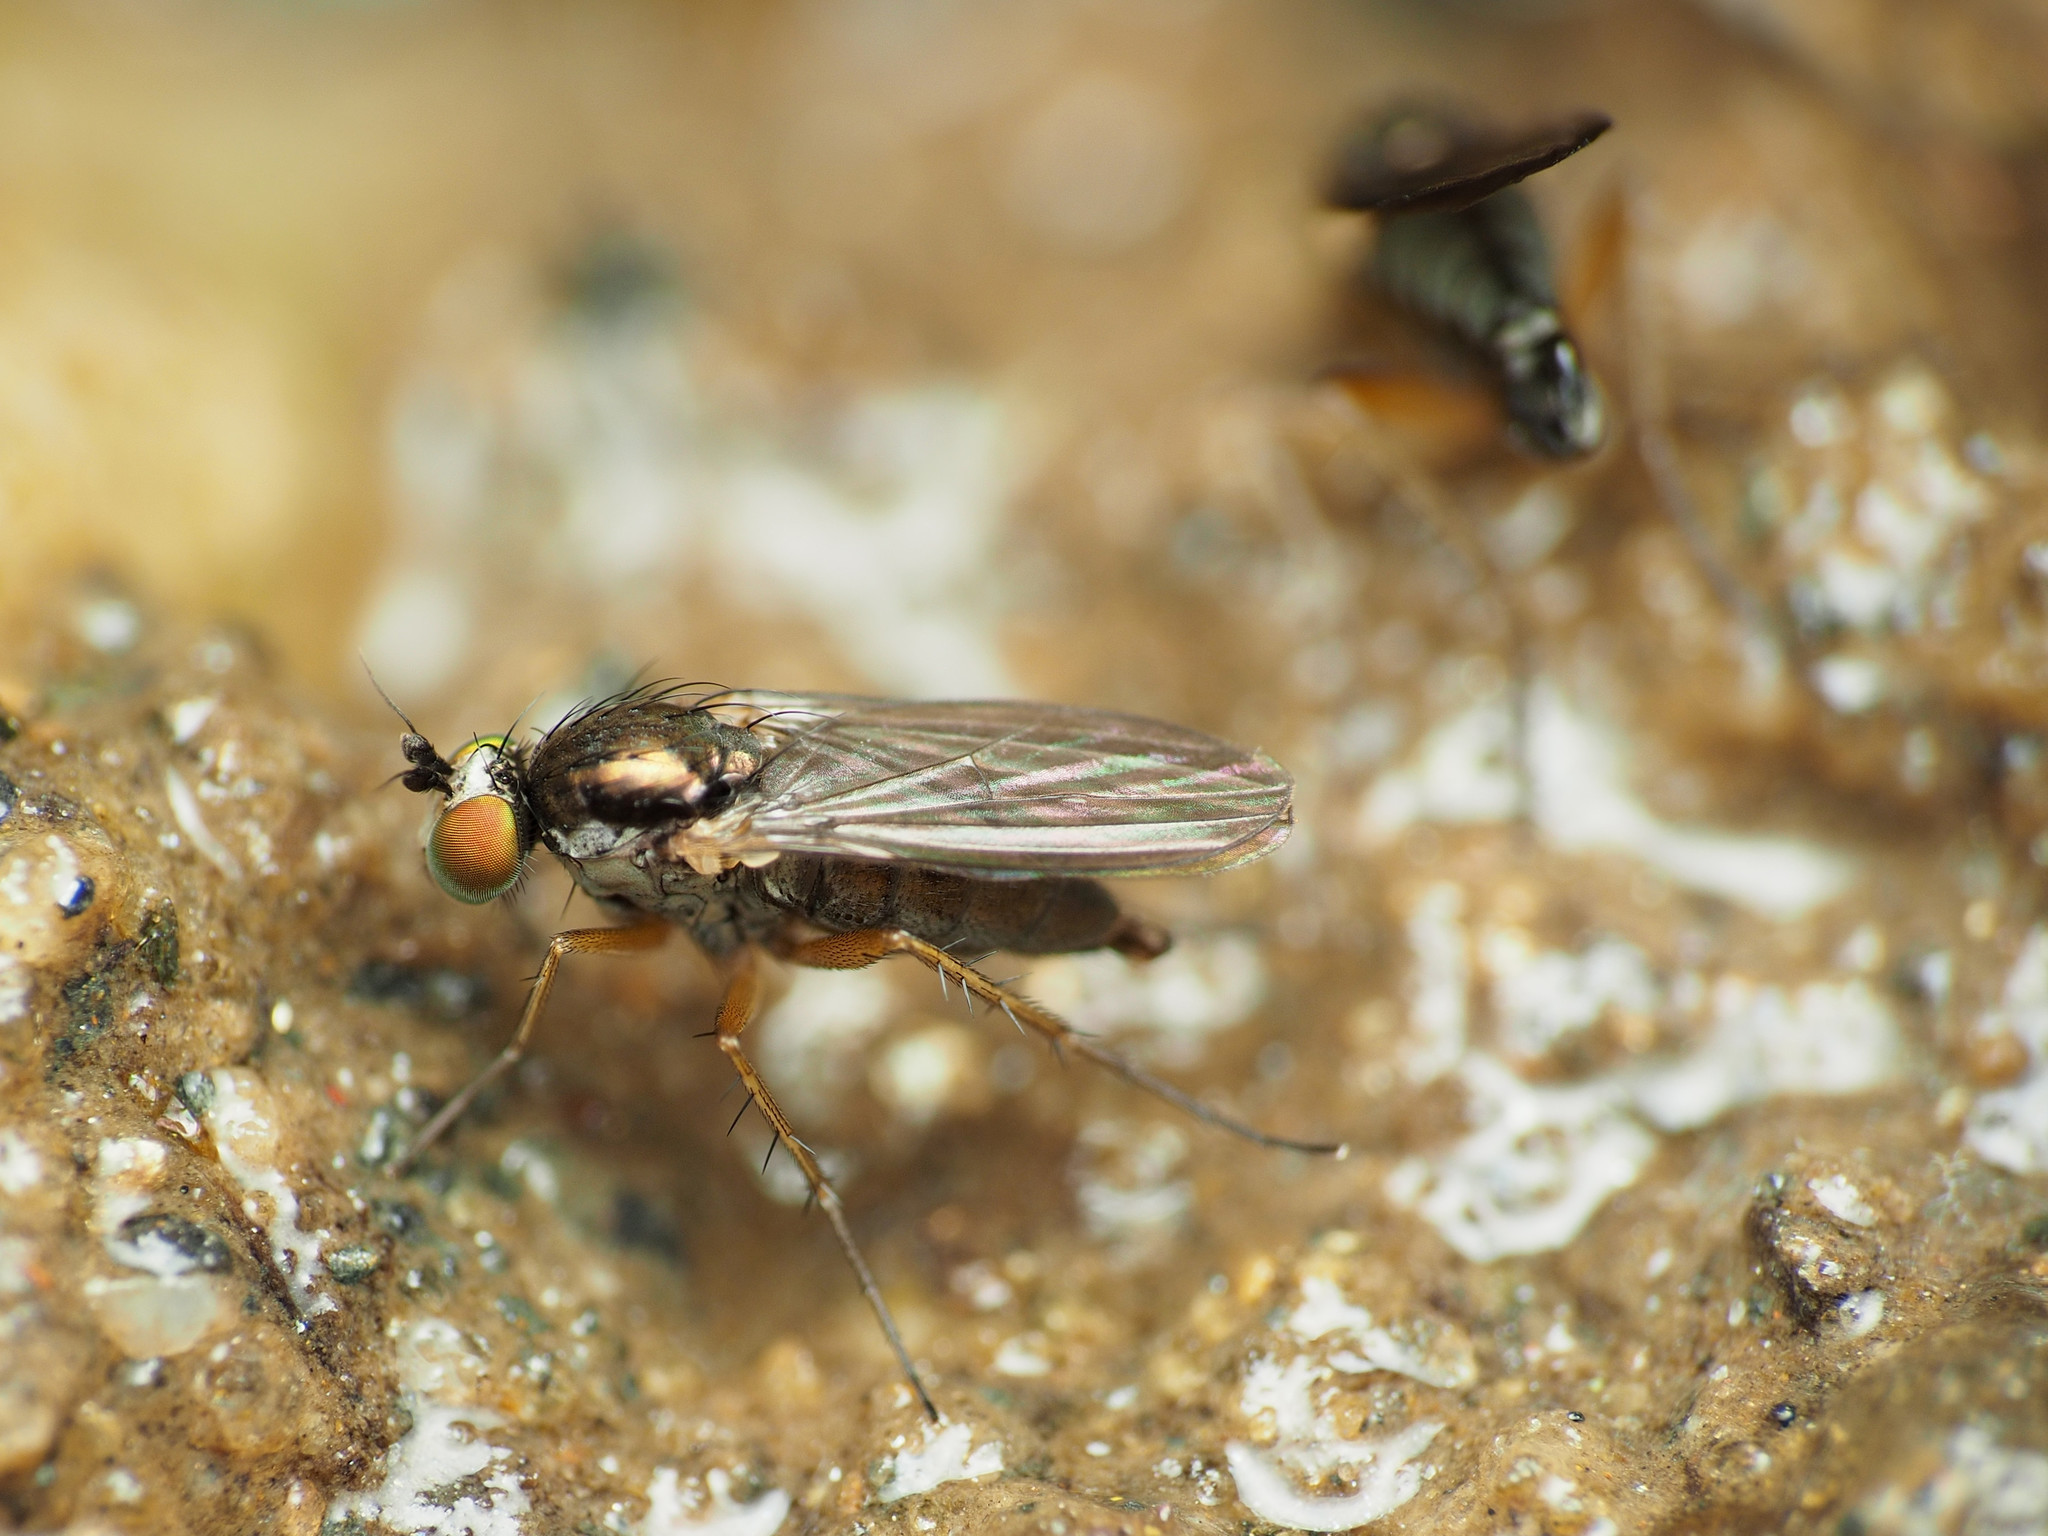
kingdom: Animalia
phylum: Arthropoda
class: Insecta
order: Diptera
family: Dolichopodidae
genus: Gymnopternus
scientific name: Gymnopternus meniscus
